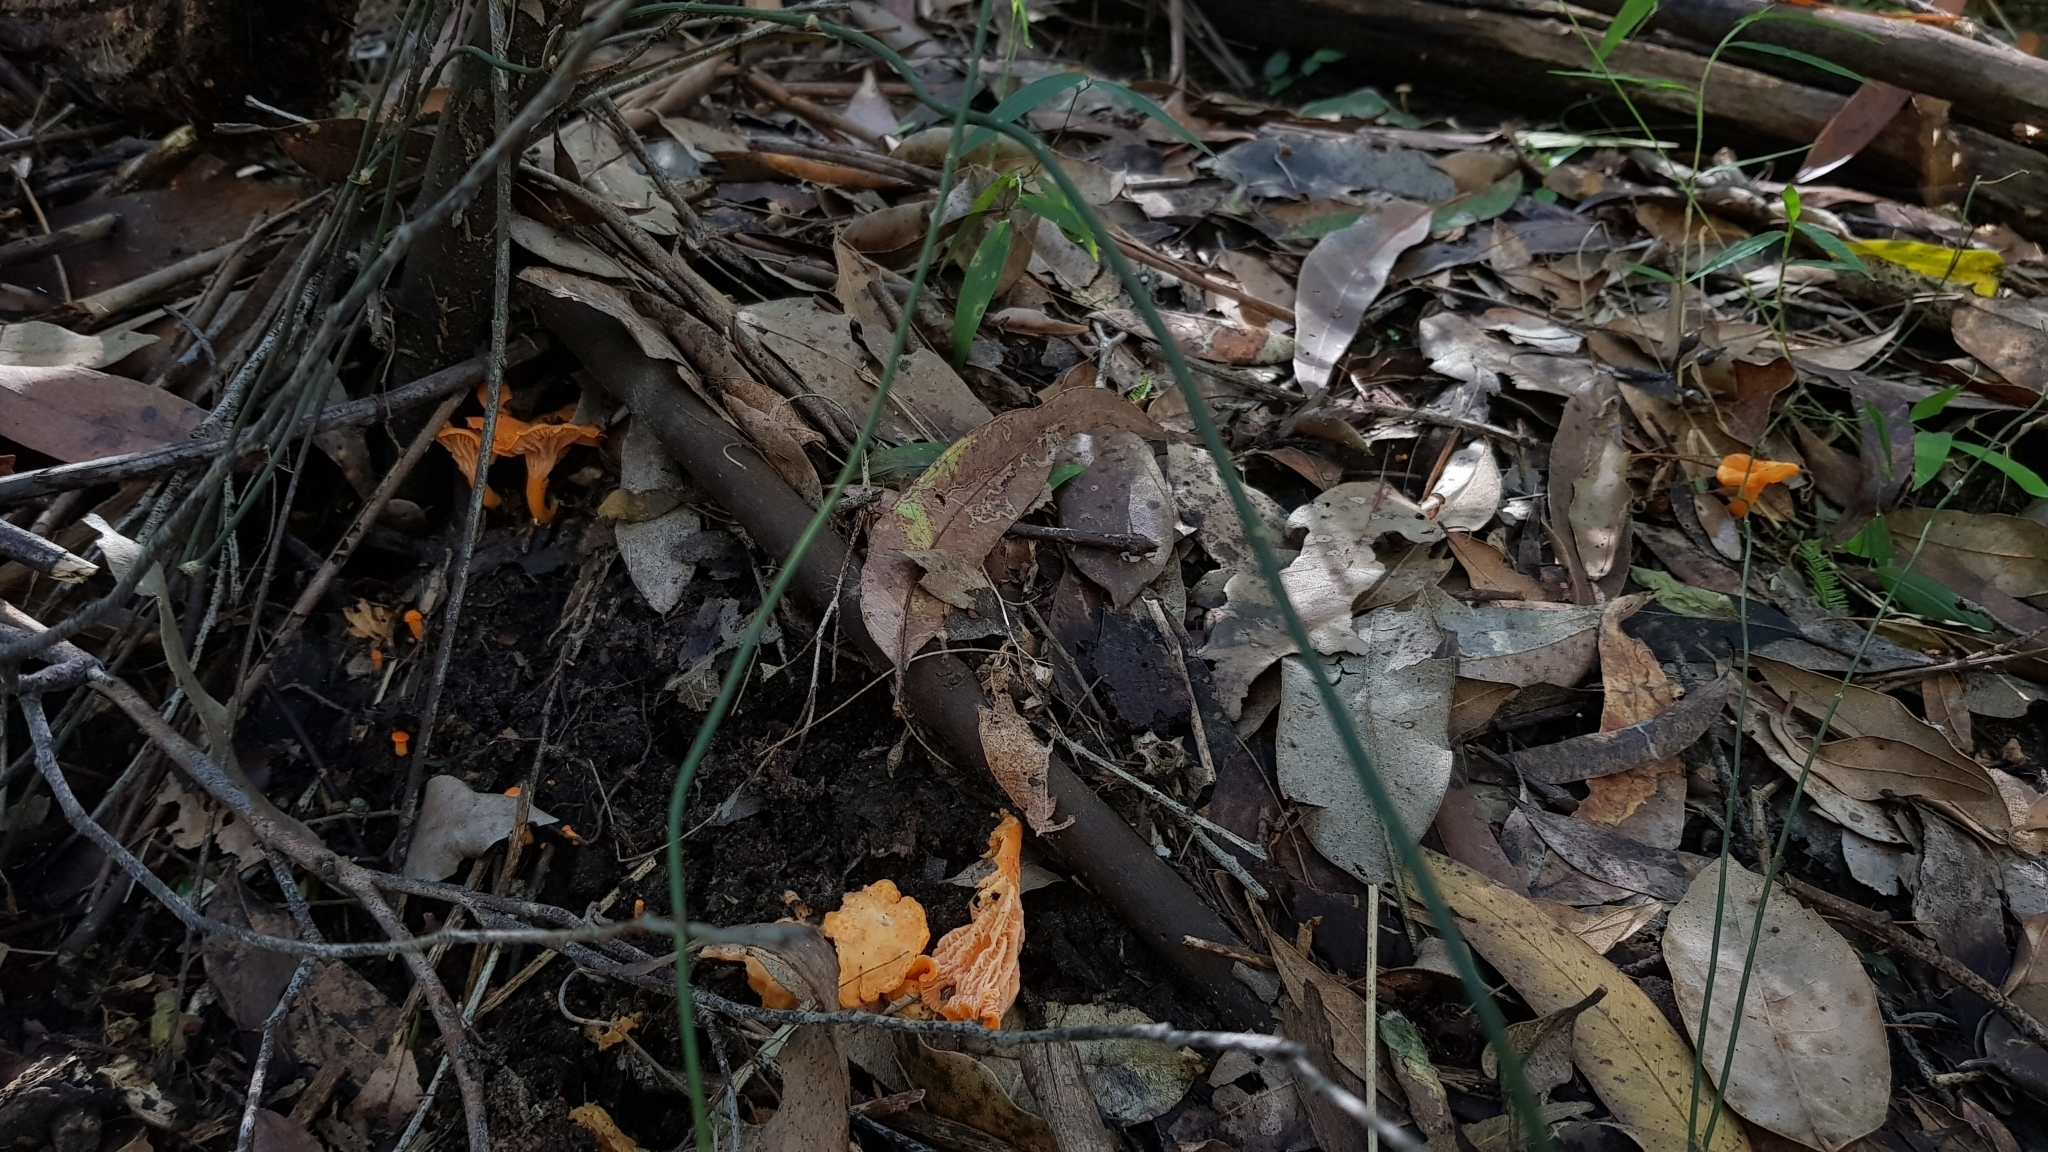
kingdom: Fungi
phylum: Basidiomycota
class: Agaricomycetes
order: Cantharellales
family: Hydnaceae
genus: Cantharellus
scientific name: Cantharellus
